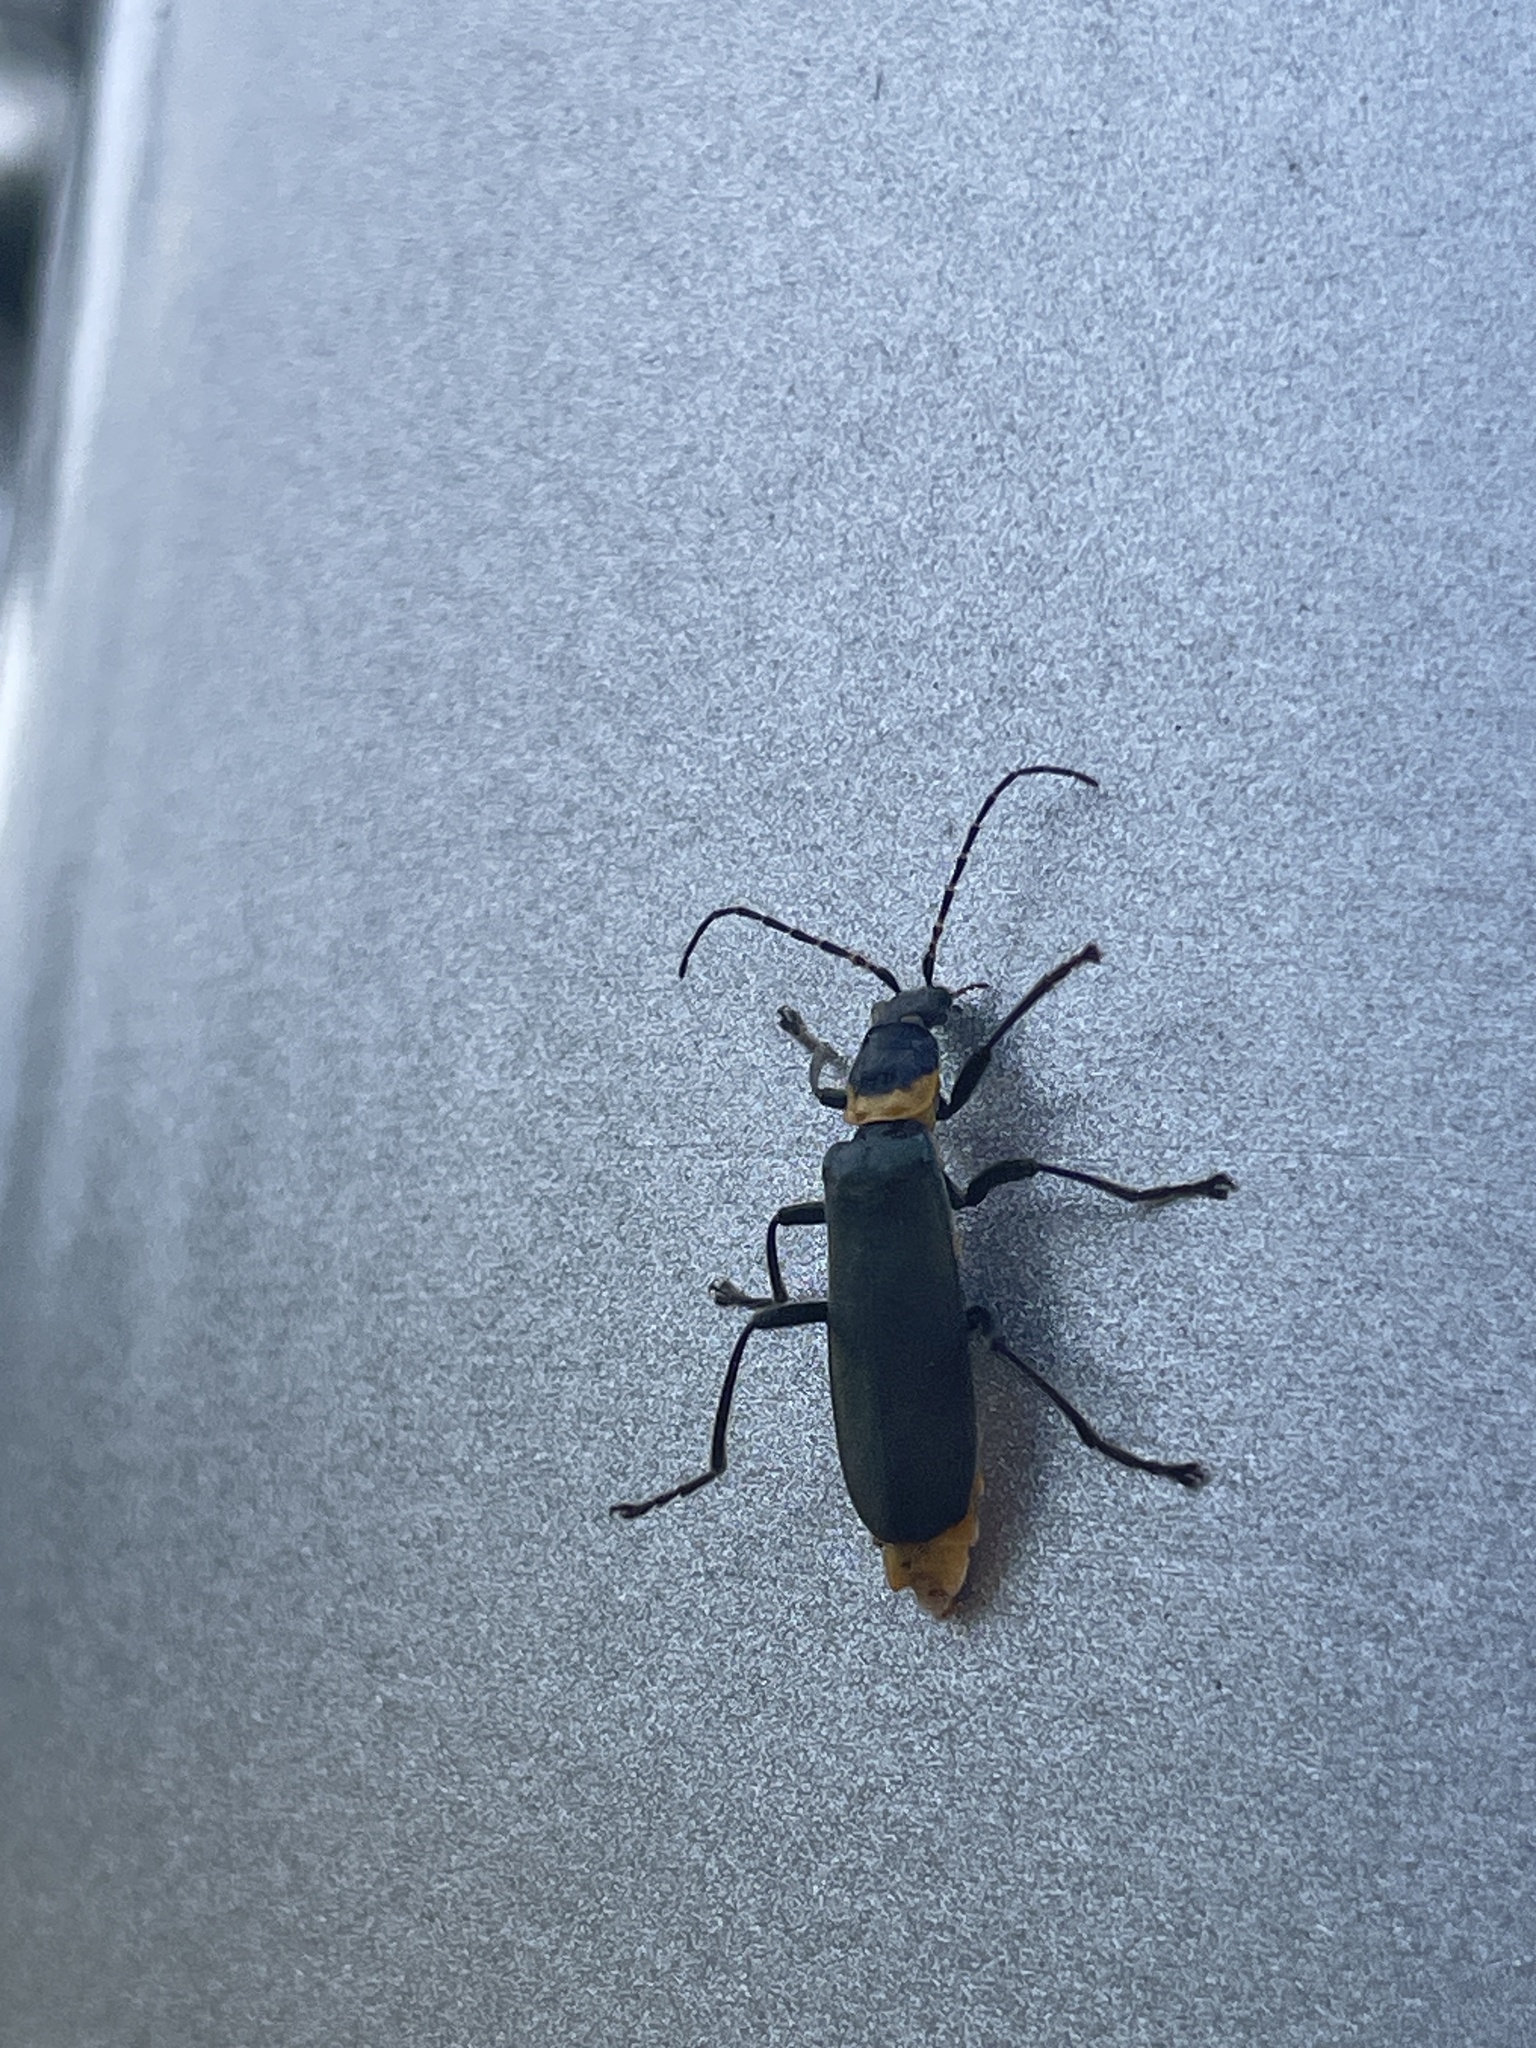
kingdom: Animalia
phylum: Arthropoda
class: Insecta
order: Coleoptera
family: Cantharidae
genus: Chauliognathus
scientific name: Chauliognathus
